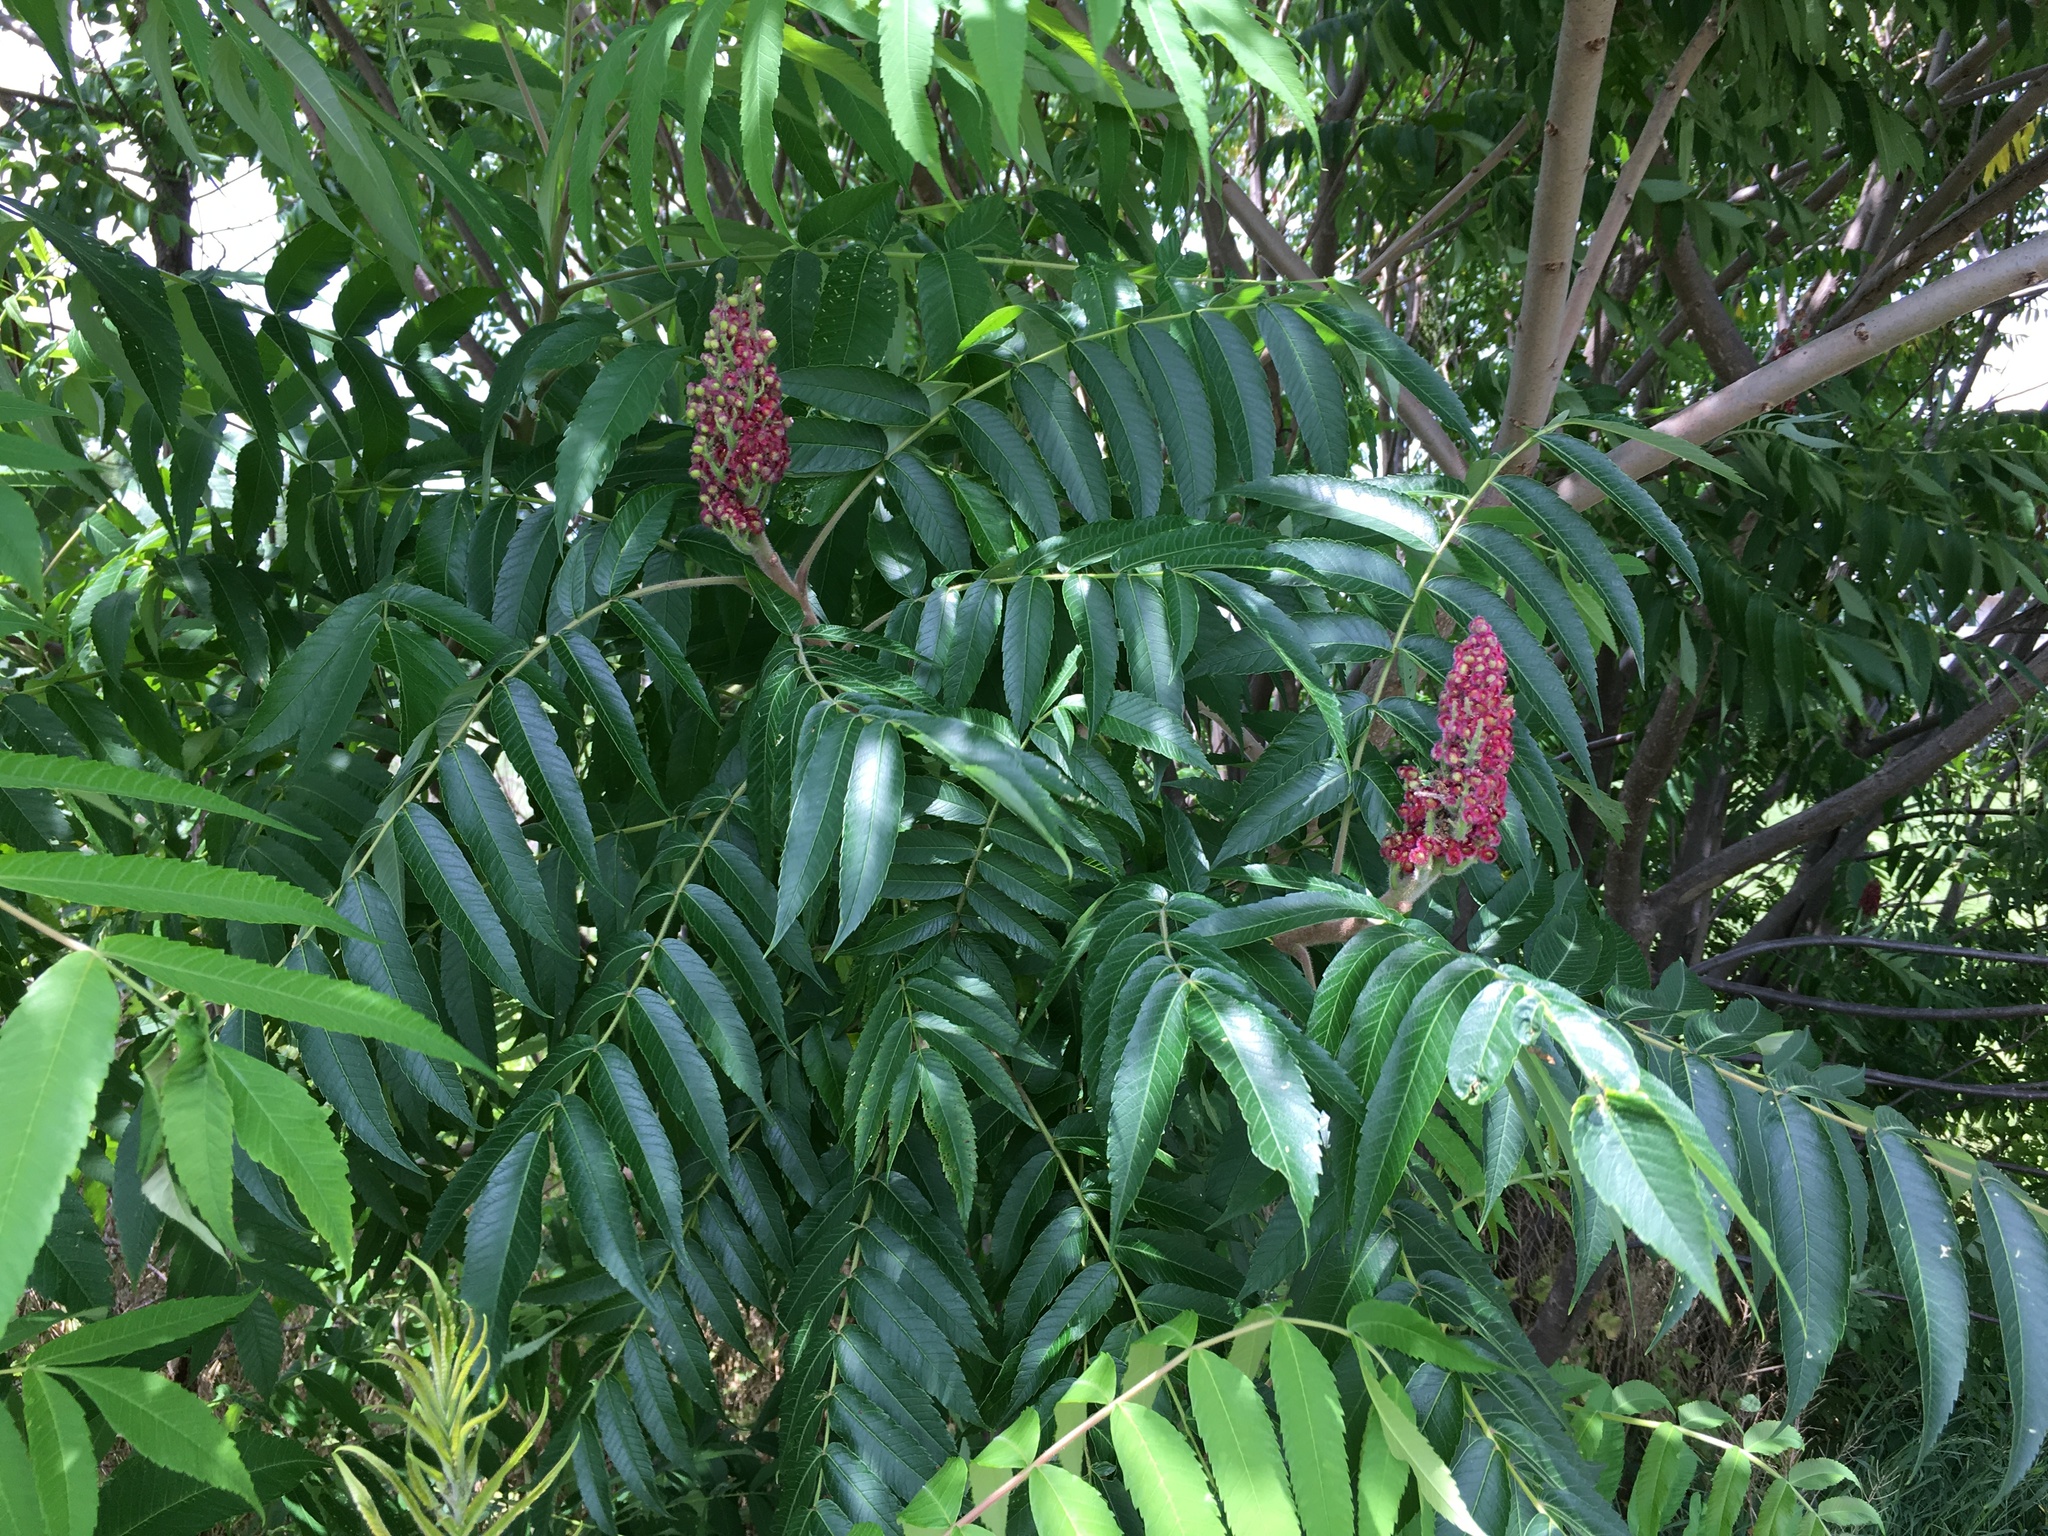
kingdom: Plantae
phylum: Tracheophyta
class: Magnoliopsida
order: Sapindales
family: Anacardiaceae
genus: Rhus
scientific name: Rhus typhina
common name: Staghorn sumac
